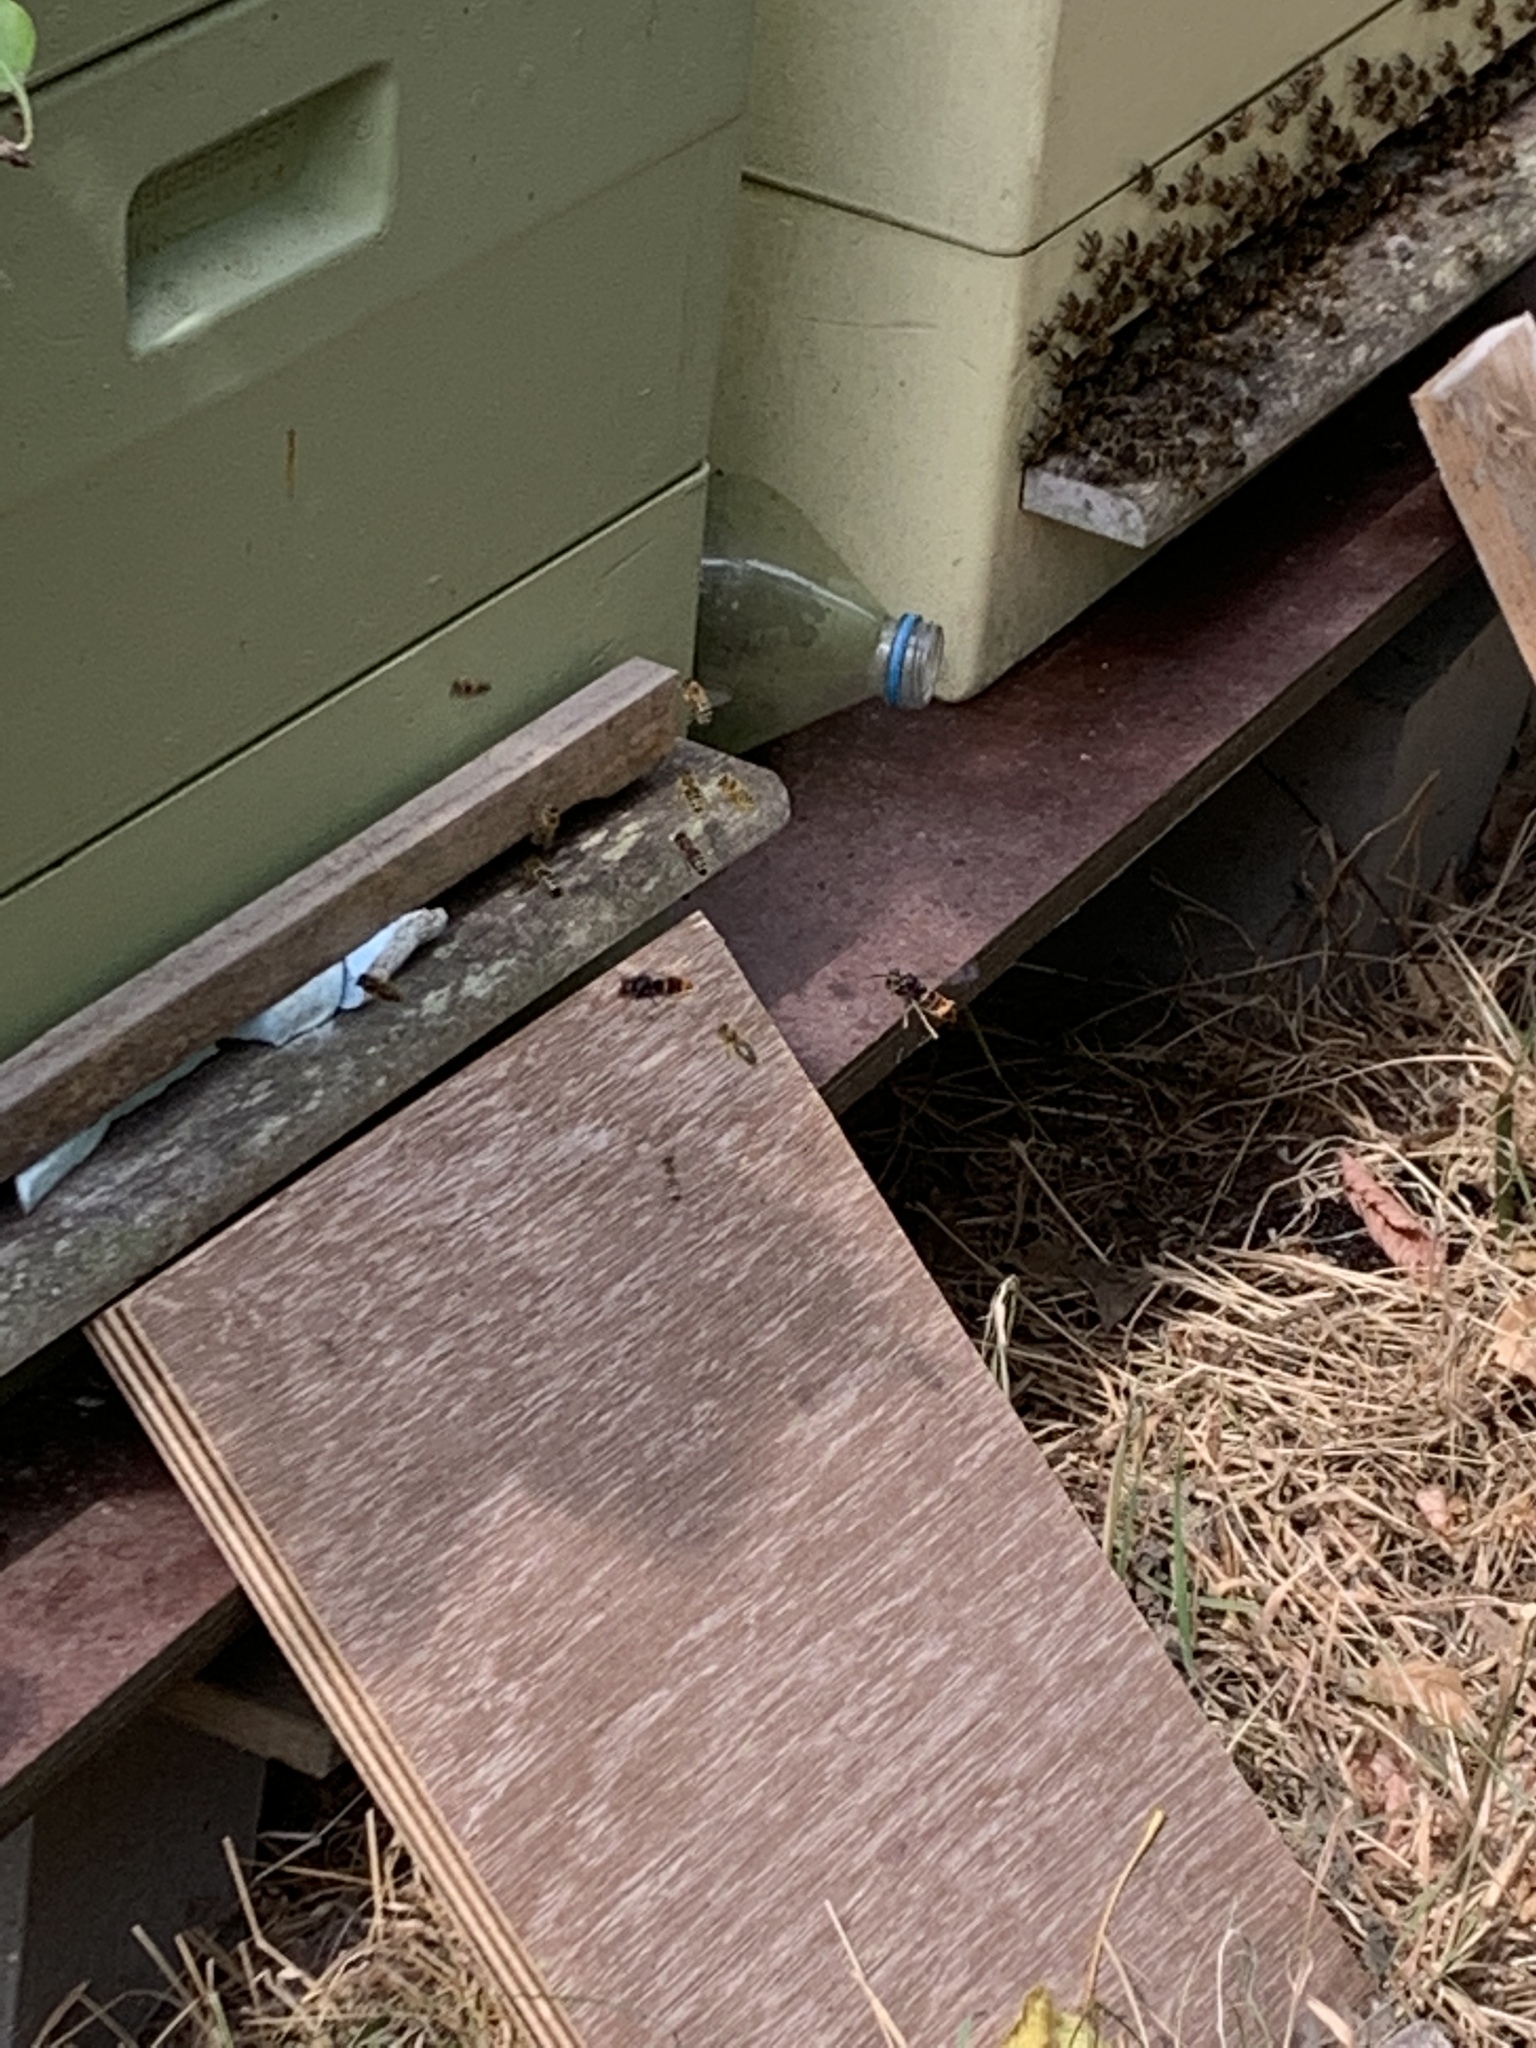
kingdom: Animalia
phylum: Arthropoda
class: Insecta
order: Hymenoptera
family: Vespidae
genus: Vespa
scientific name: Vespa velutina
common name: Asian hornet
